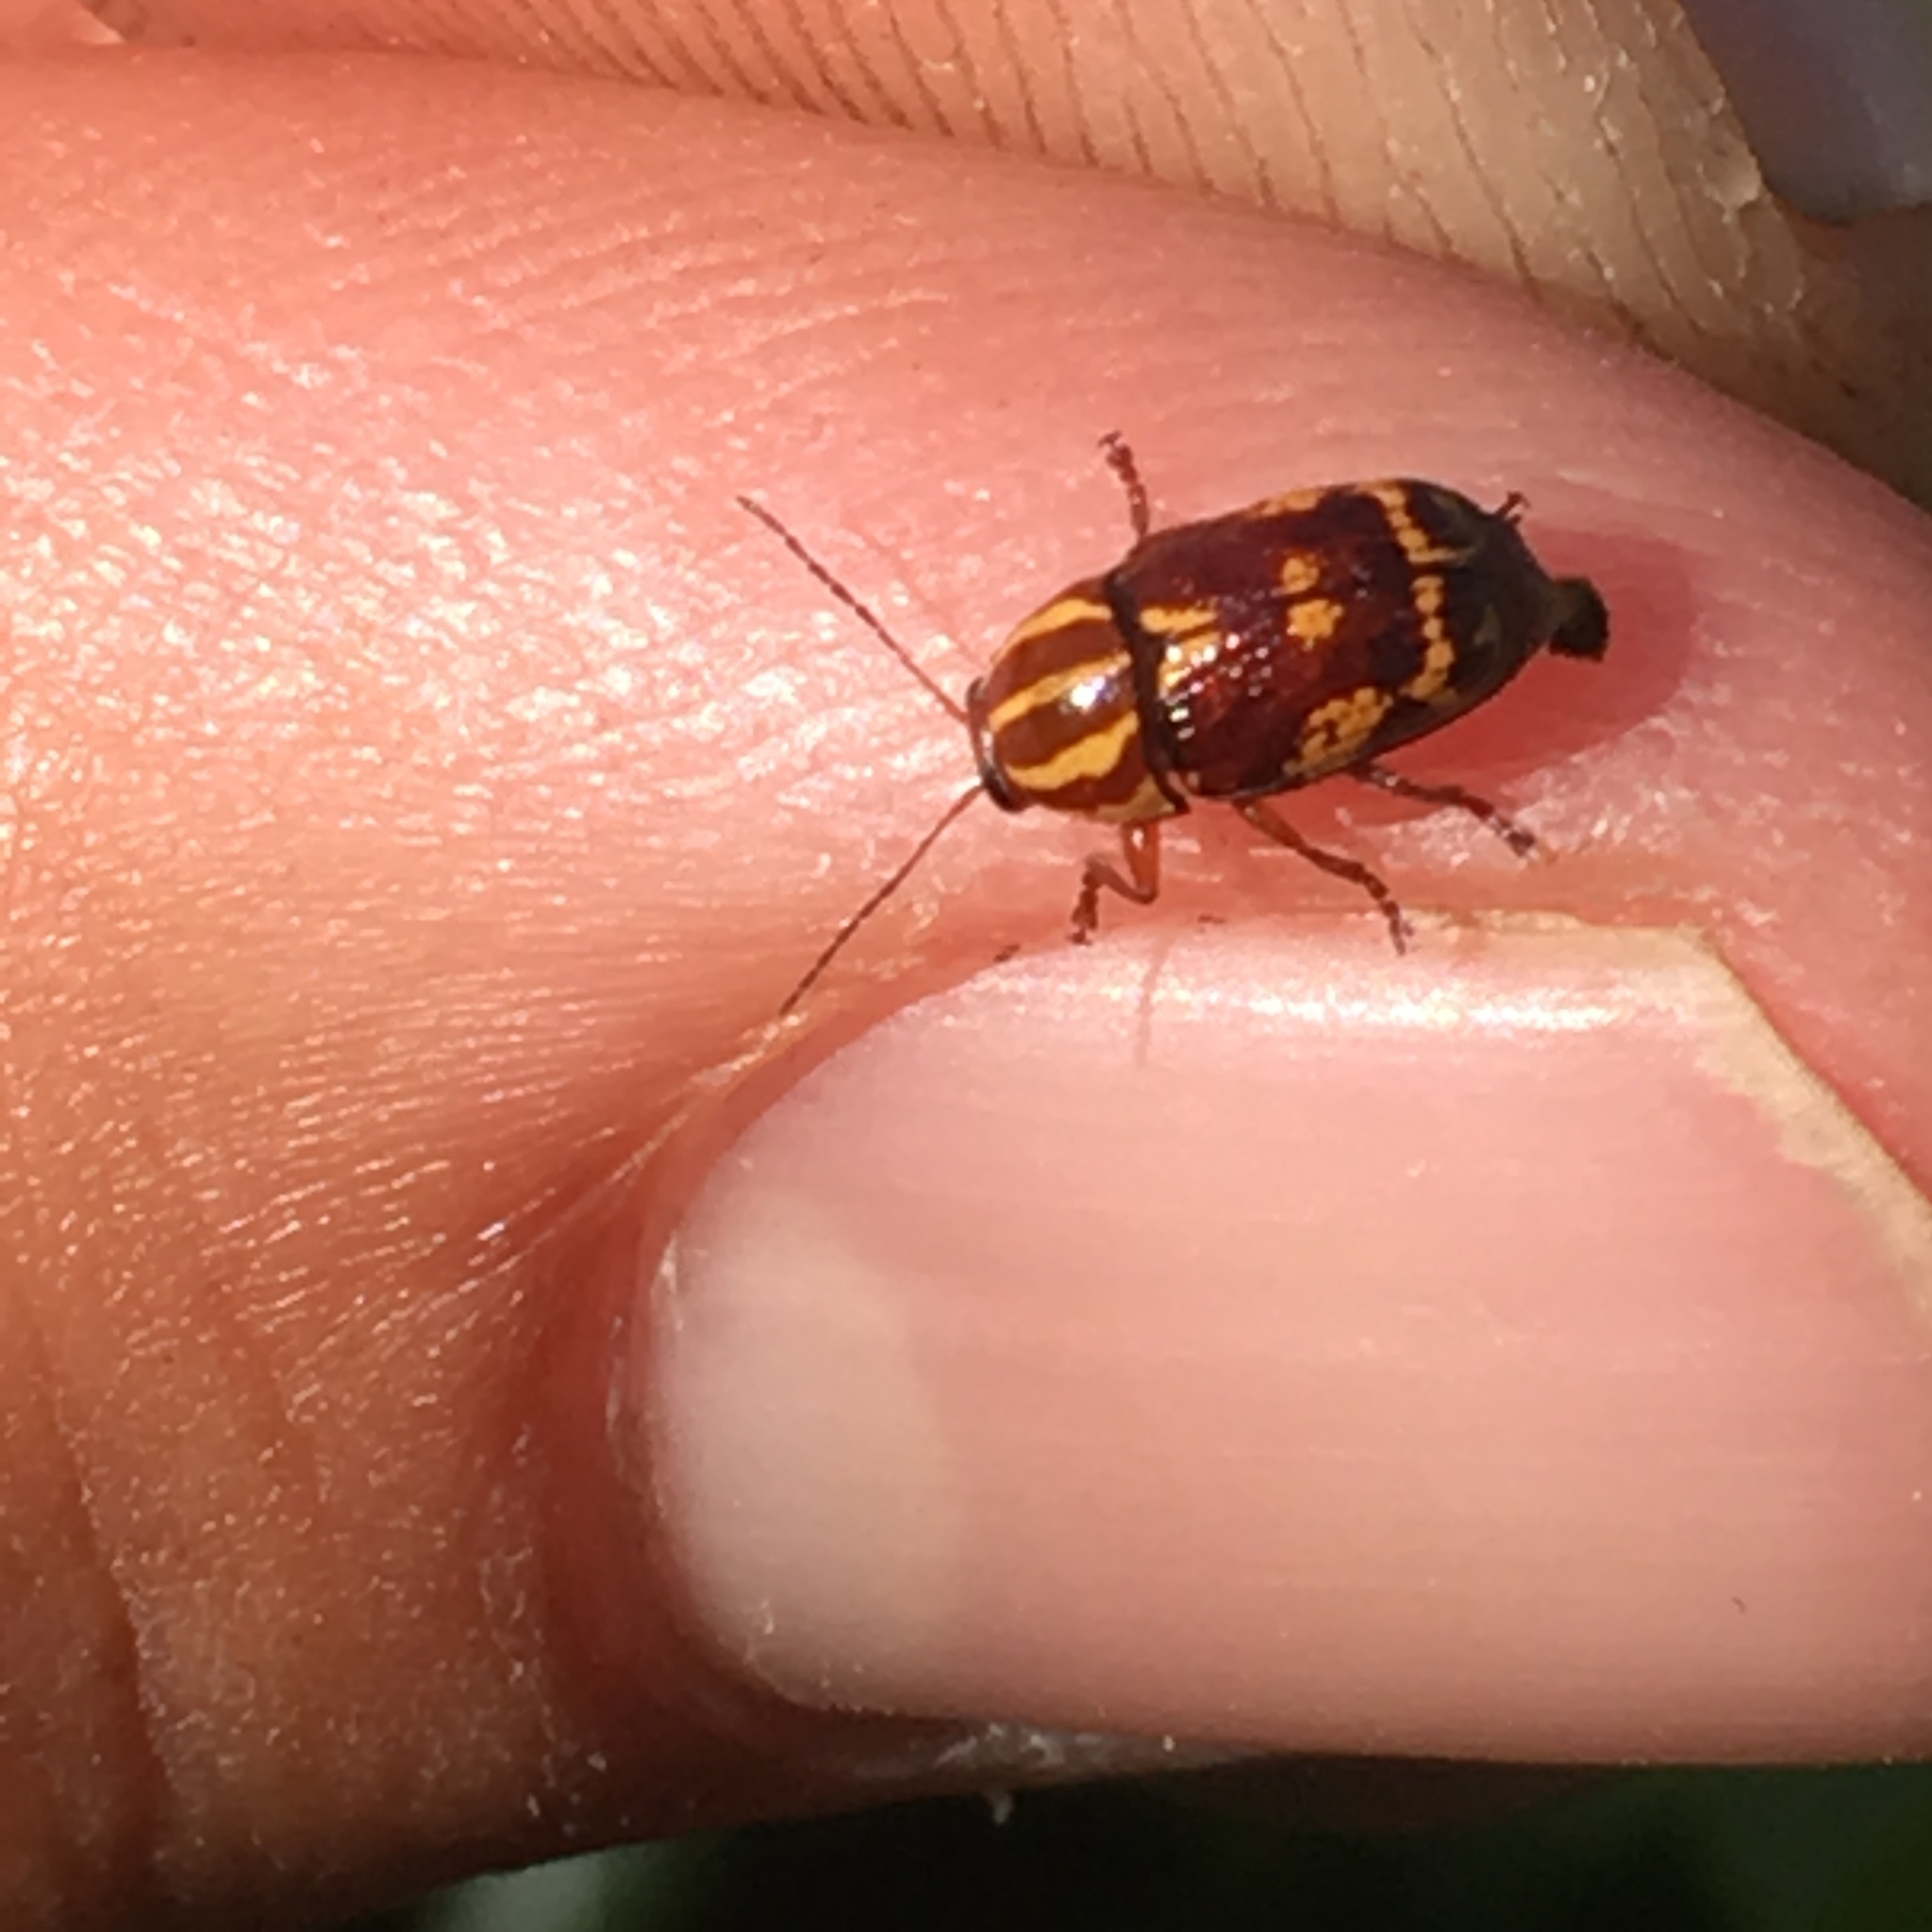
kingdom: Animalia
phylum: Arthropoda
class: Insecta
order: Coleoptera
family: Chrysomelidae
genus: Cryptocephalus
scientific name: Cryptocephalus castaneus
